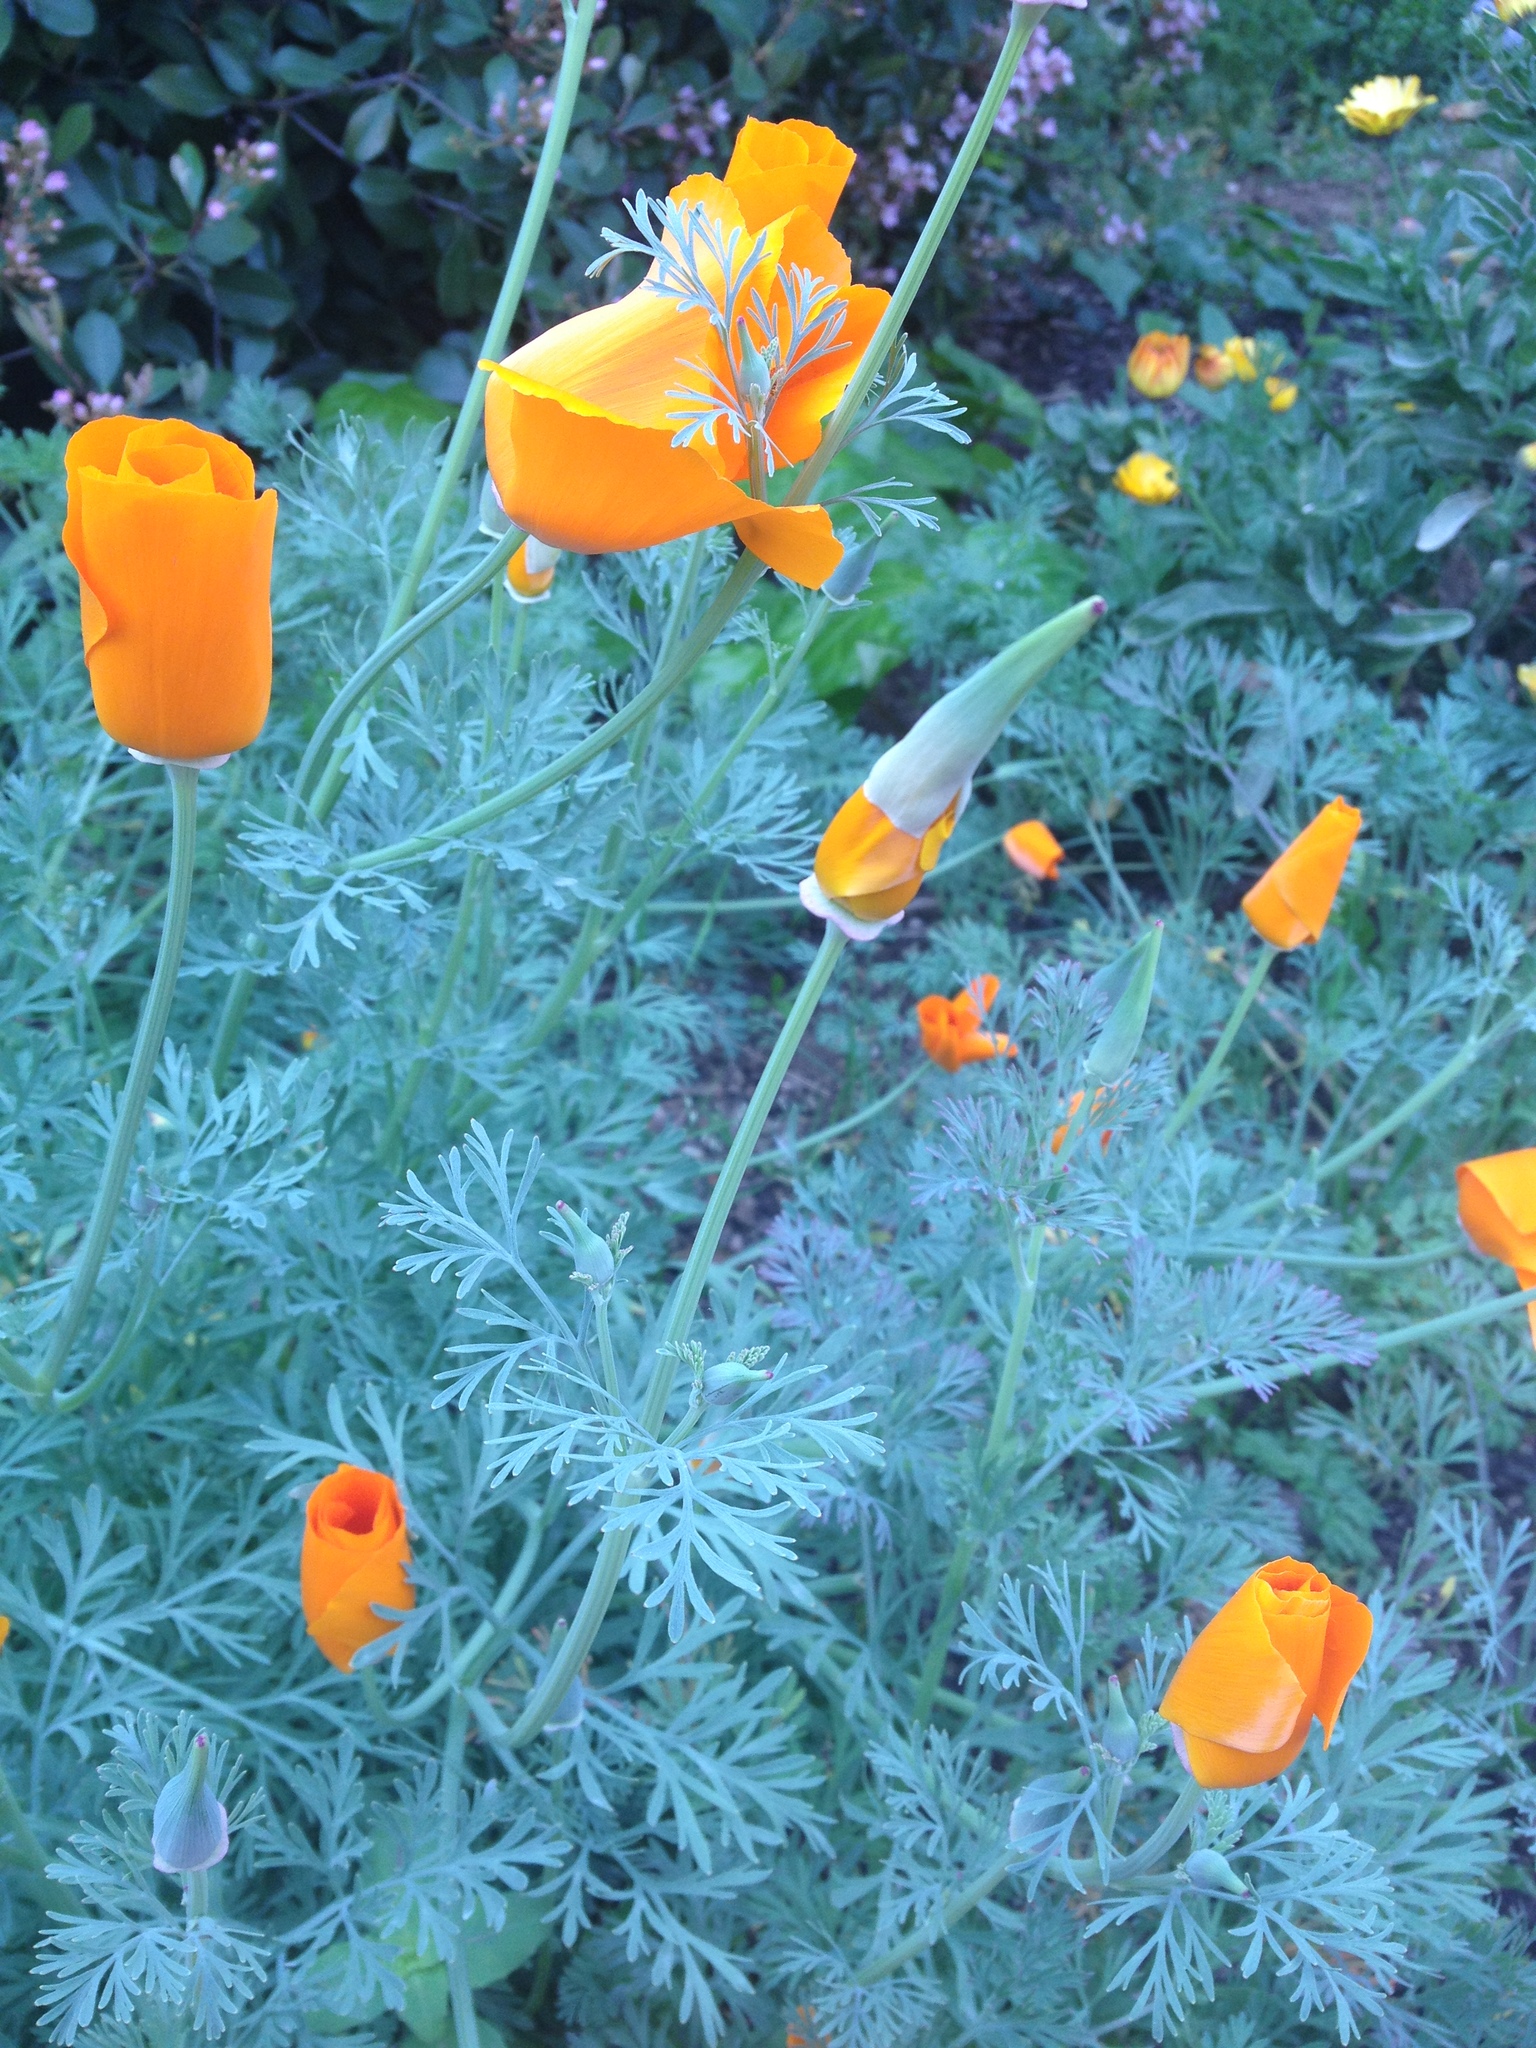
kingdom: Plantae
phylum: Tracheophyta
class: Magnoliopsida
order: Ranunculales
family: Papaveraceae
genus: Eschscholzia
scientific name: Eschscholzia californica
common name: California poppy
